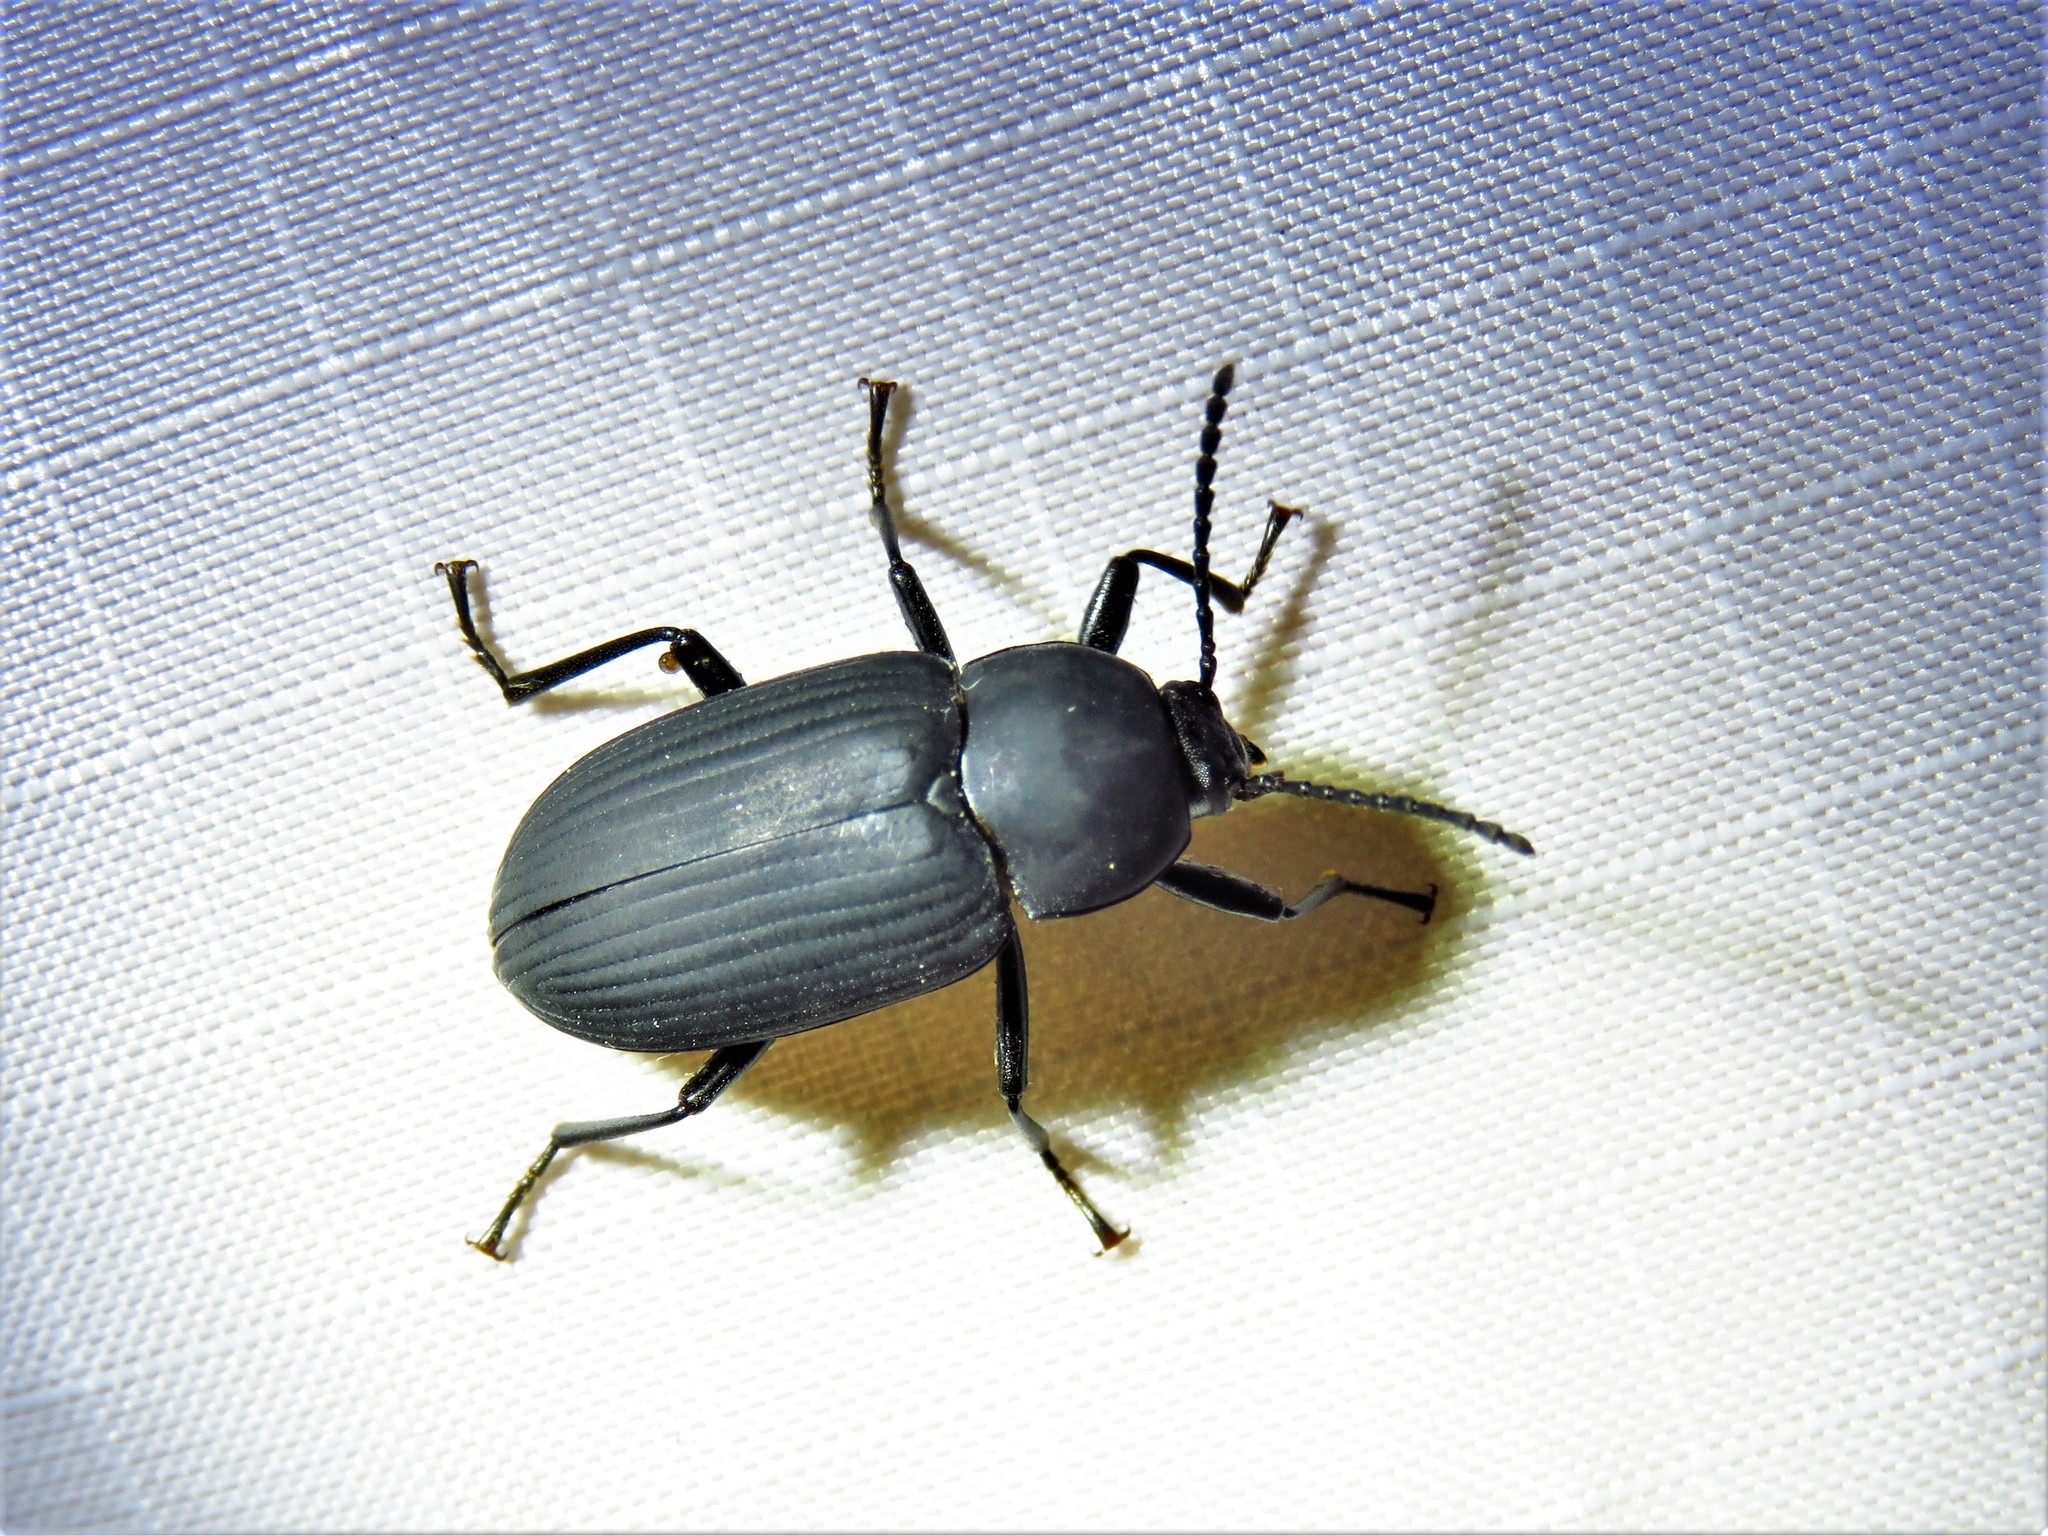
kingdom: Animalia
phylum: Arthropoda
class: Insecta
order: Coleoptera
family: Tenebrionidae
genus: Cymatothes
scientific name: Cymatothes unicolor
